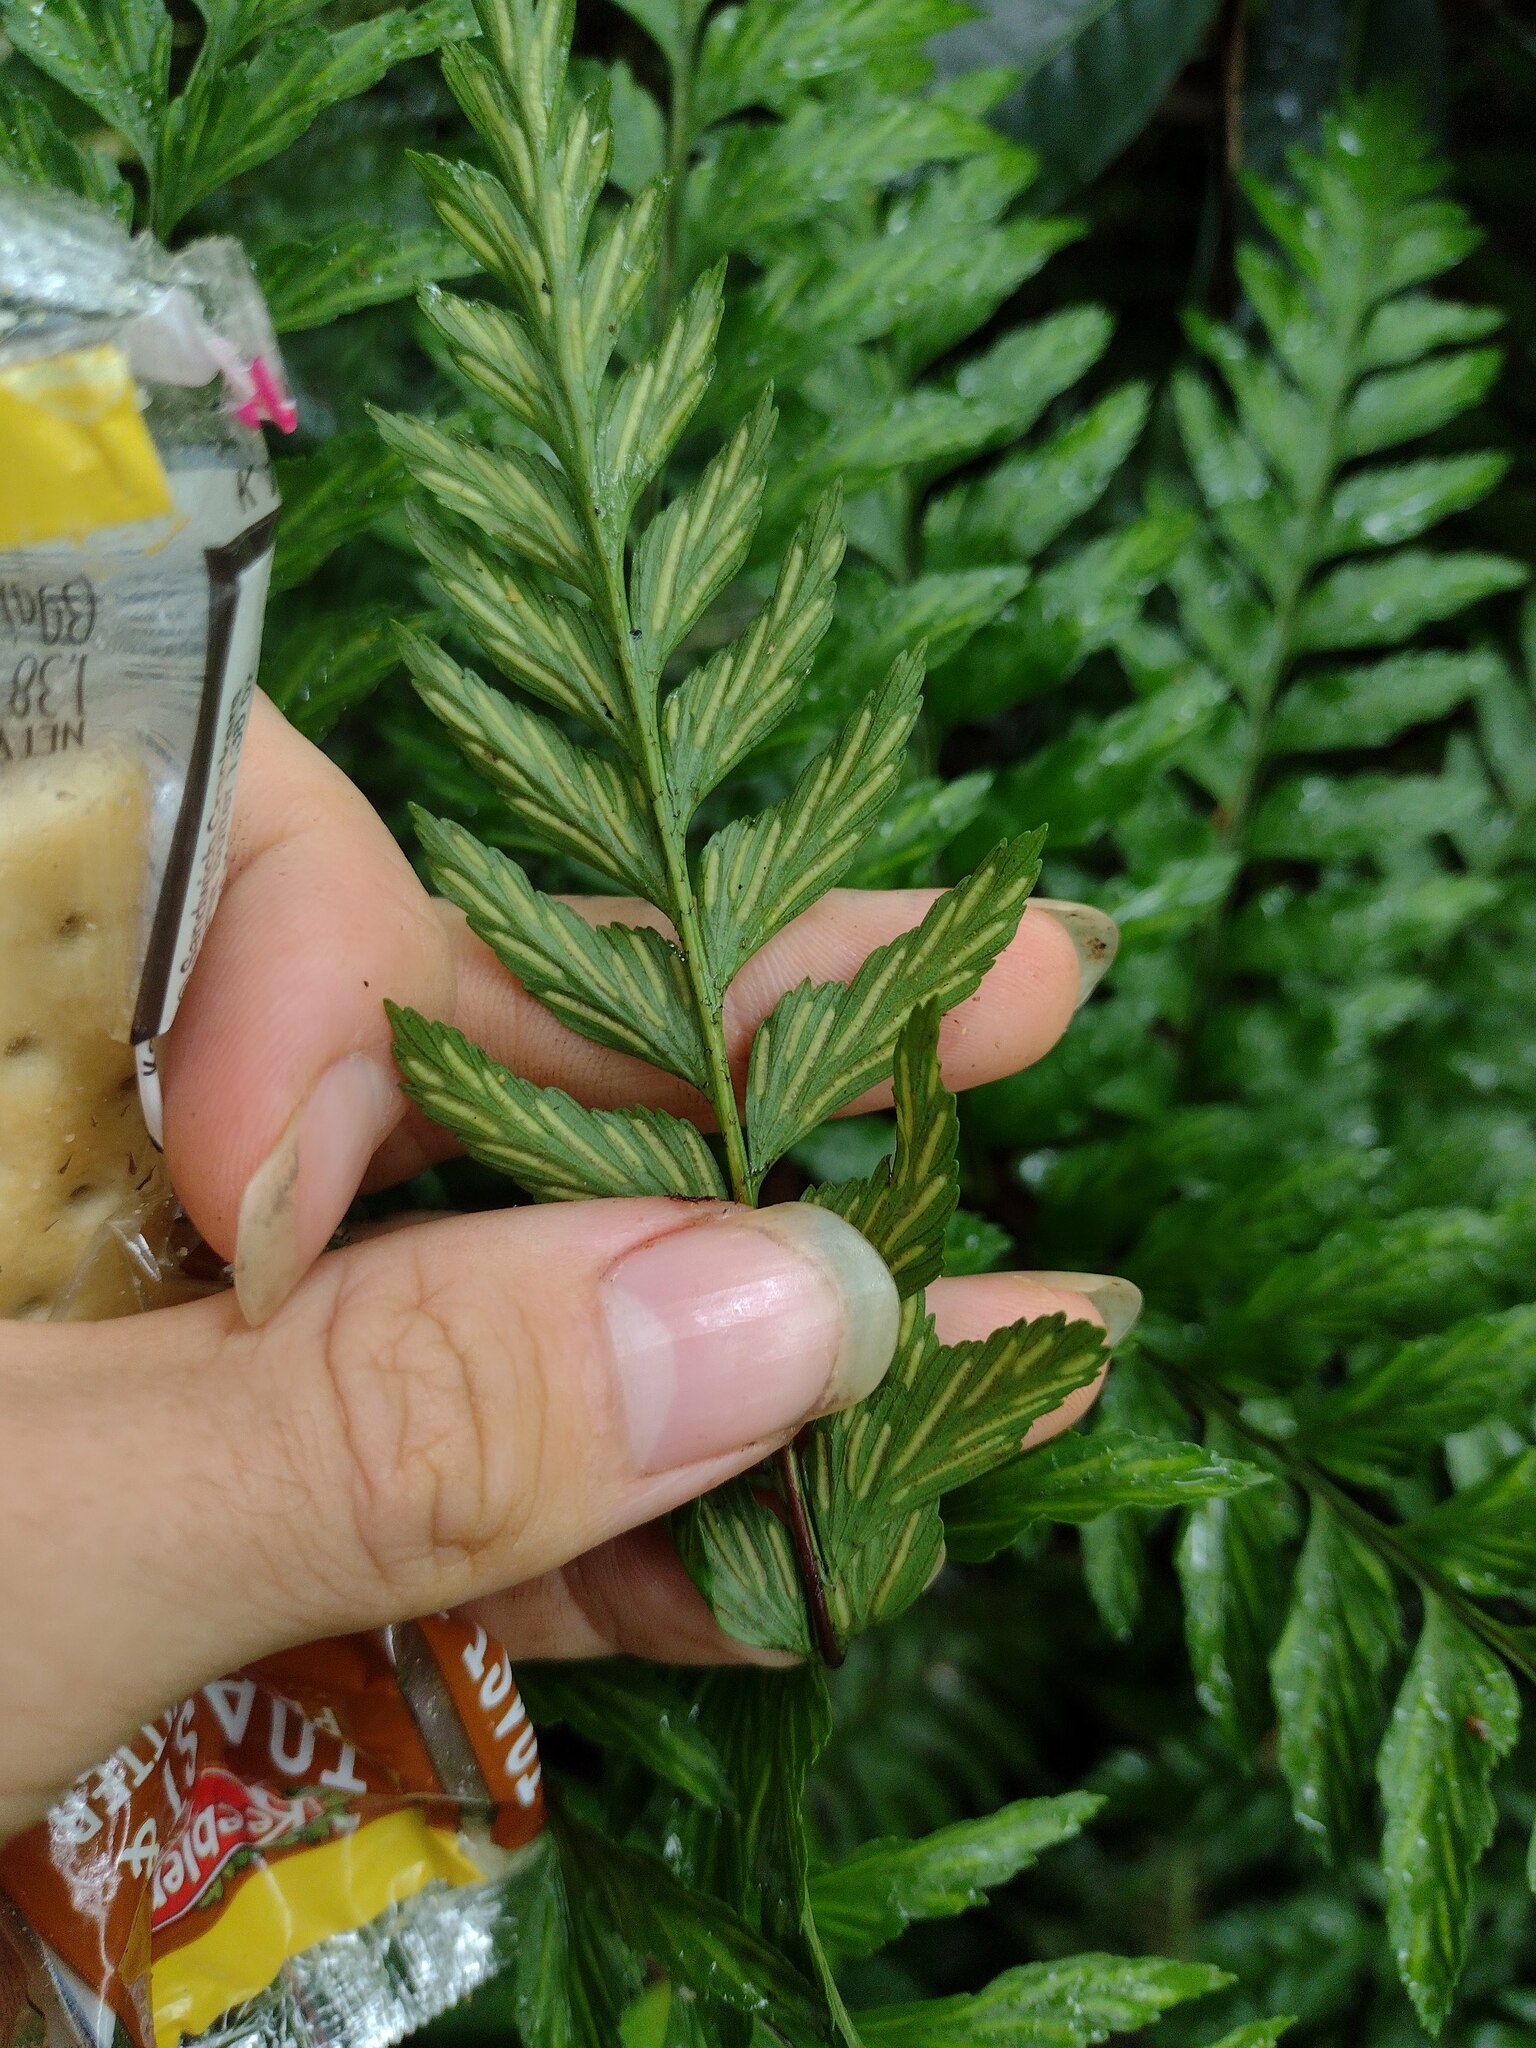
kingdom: Plantae
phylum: Tracheophyta
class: Polypodiopsida
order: Polypodiales
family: Aspleniaceae
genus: Asplenium
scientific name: Asplenium acuminatum
